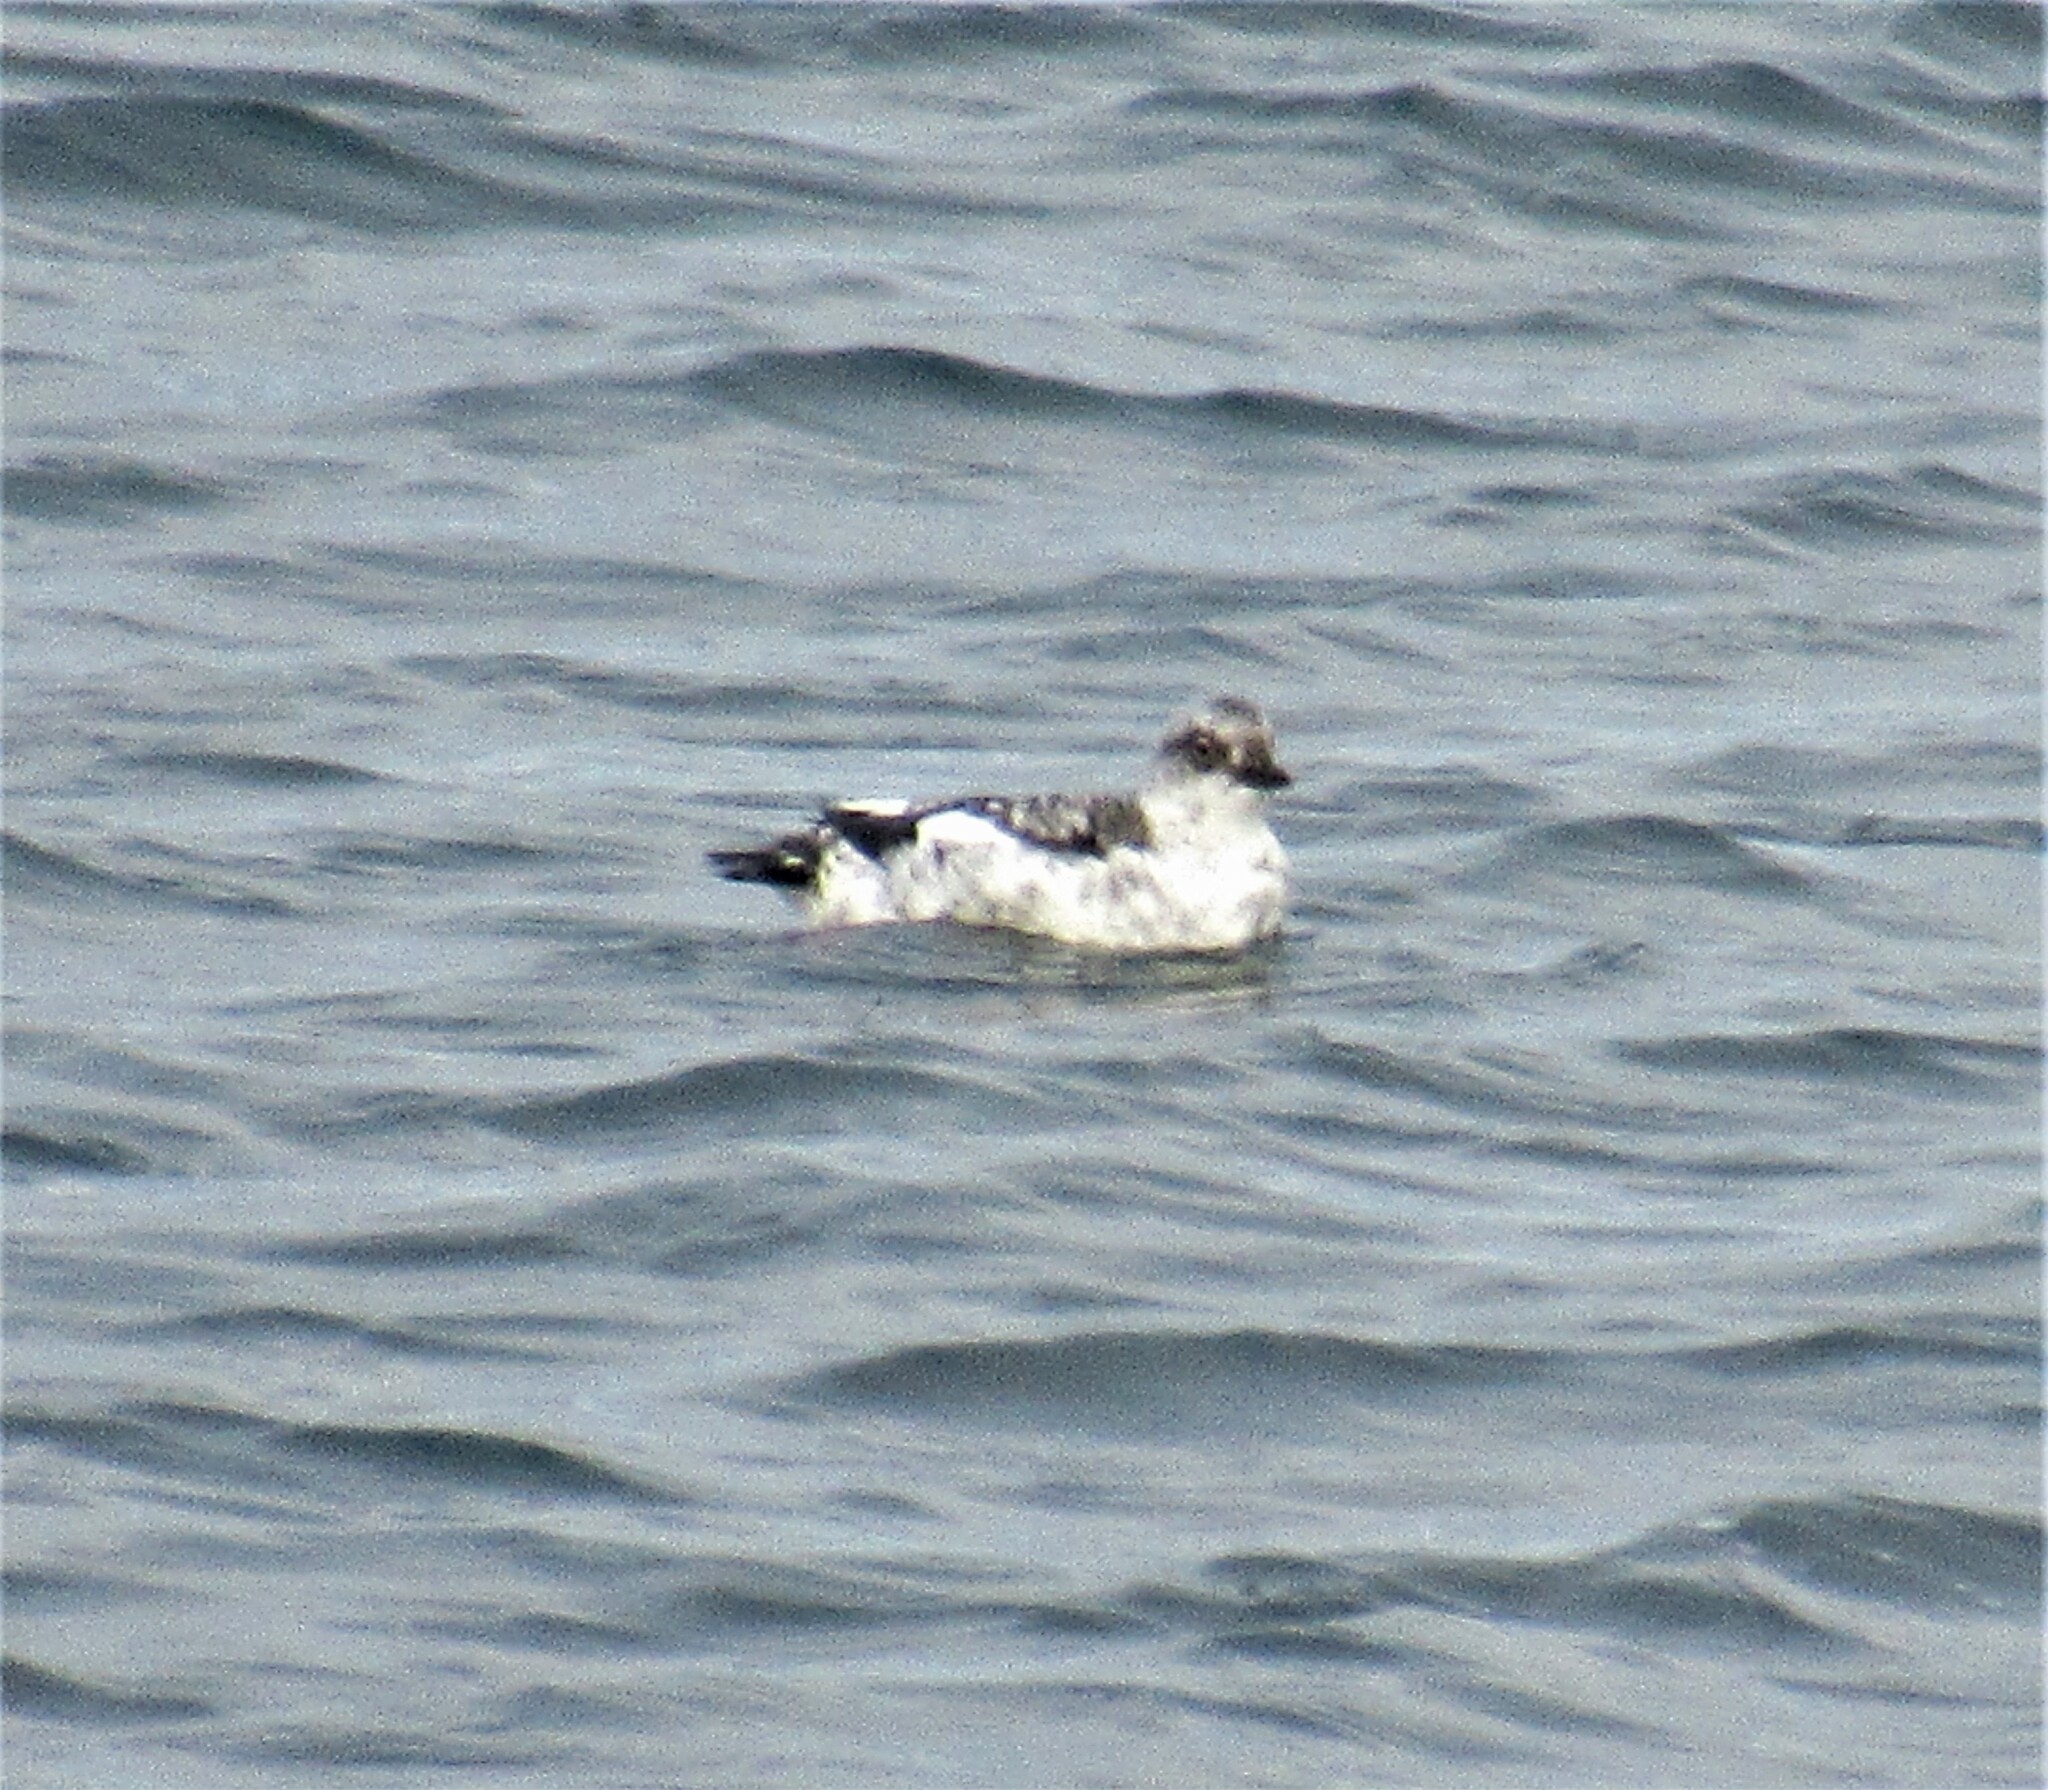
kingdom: Animalia
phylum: Chordata
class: Aves
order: Charadriiformes
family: Alcidae
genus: Cepphus
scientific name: Cepphus columba
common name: Pigeon guillemot
